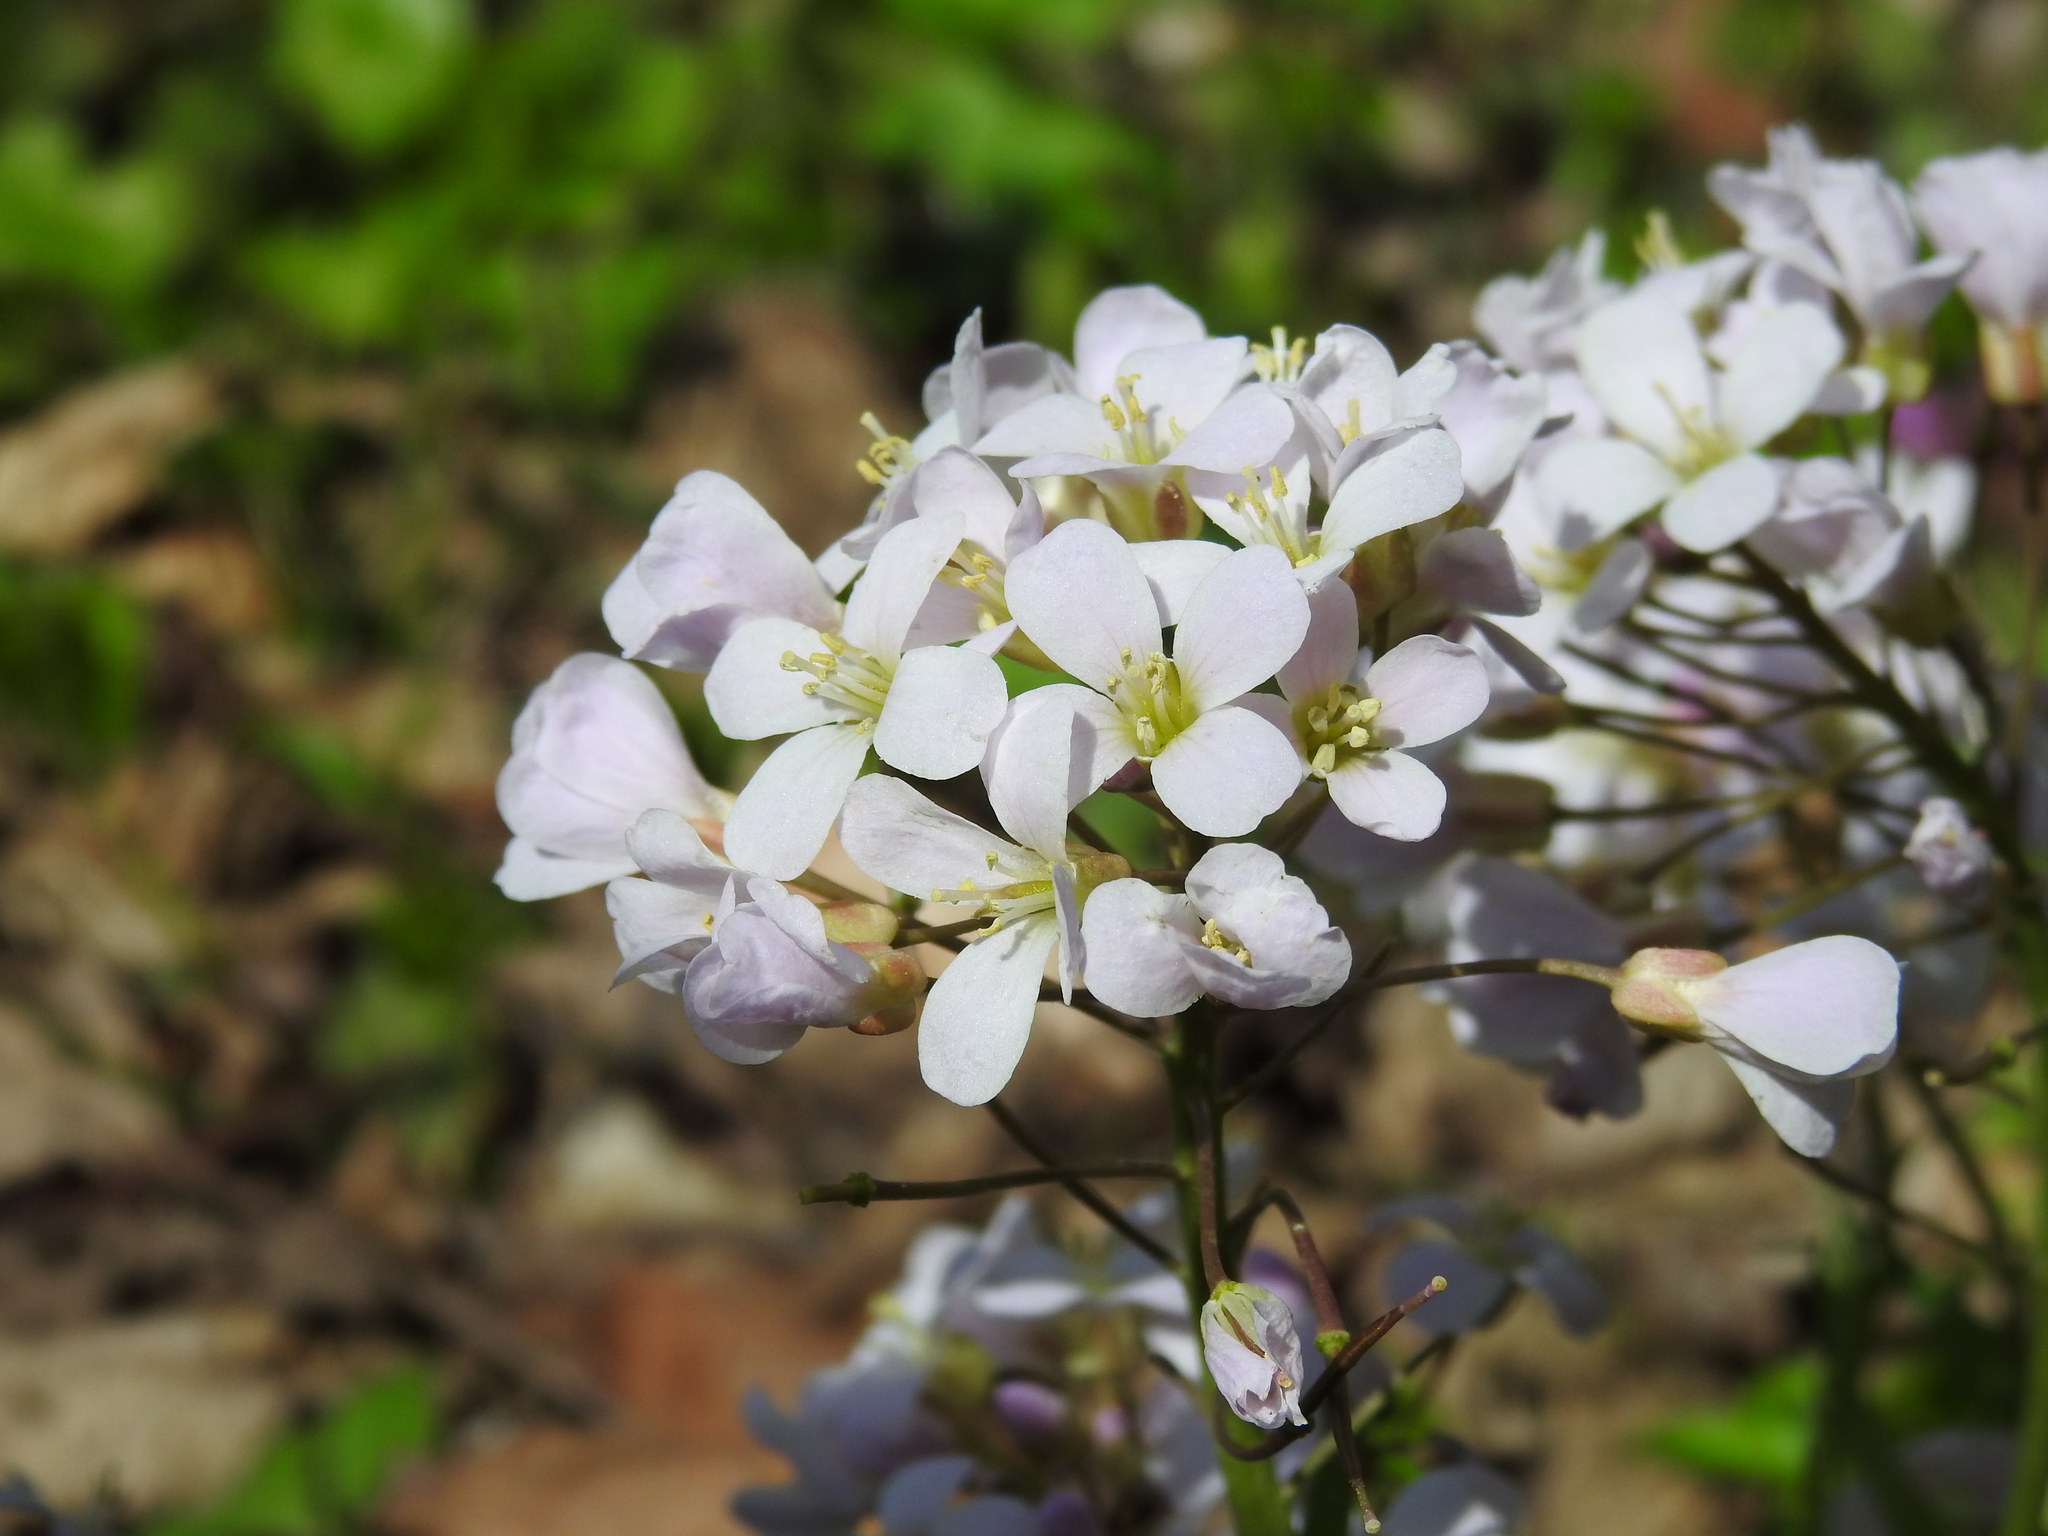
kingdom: Plantae
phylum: Tracheophyta
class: Magnoliopsida
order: Brassicales
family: Brassicaceae
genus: Cardamine
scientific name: Cardamine douglassii
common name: Purple cress
